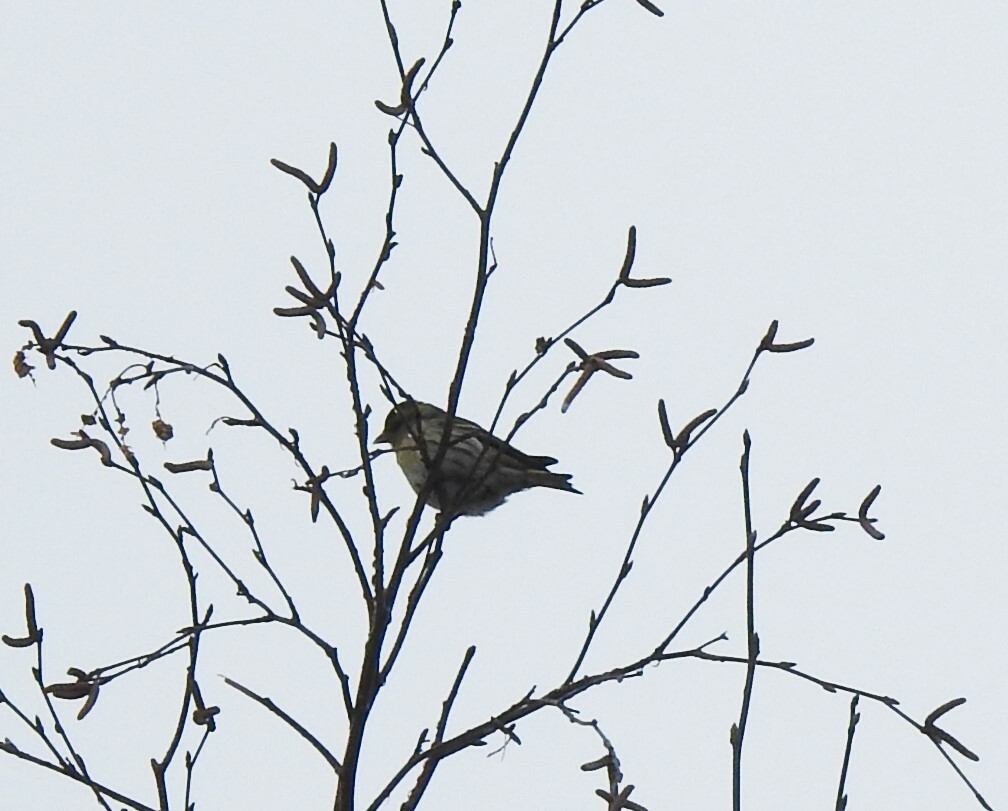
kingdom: Animalia
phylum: Chordata
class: Aves
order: Passeriformes
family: Fringillidae
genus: Spinus
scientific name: Spinus spinus
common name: Eurasian siskin
